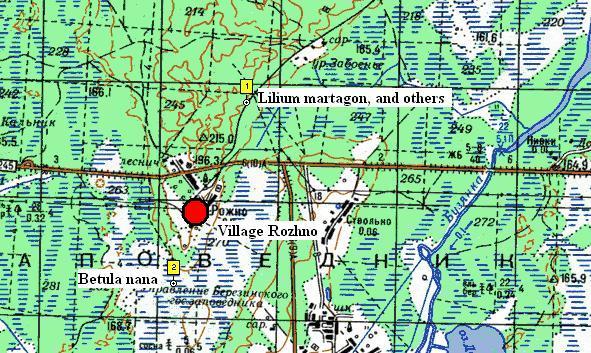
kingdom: Animalia
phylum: Chordata
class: Squamata
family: Colubridae
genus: Natrix
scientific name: Natrix natrix
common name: Grass snake
